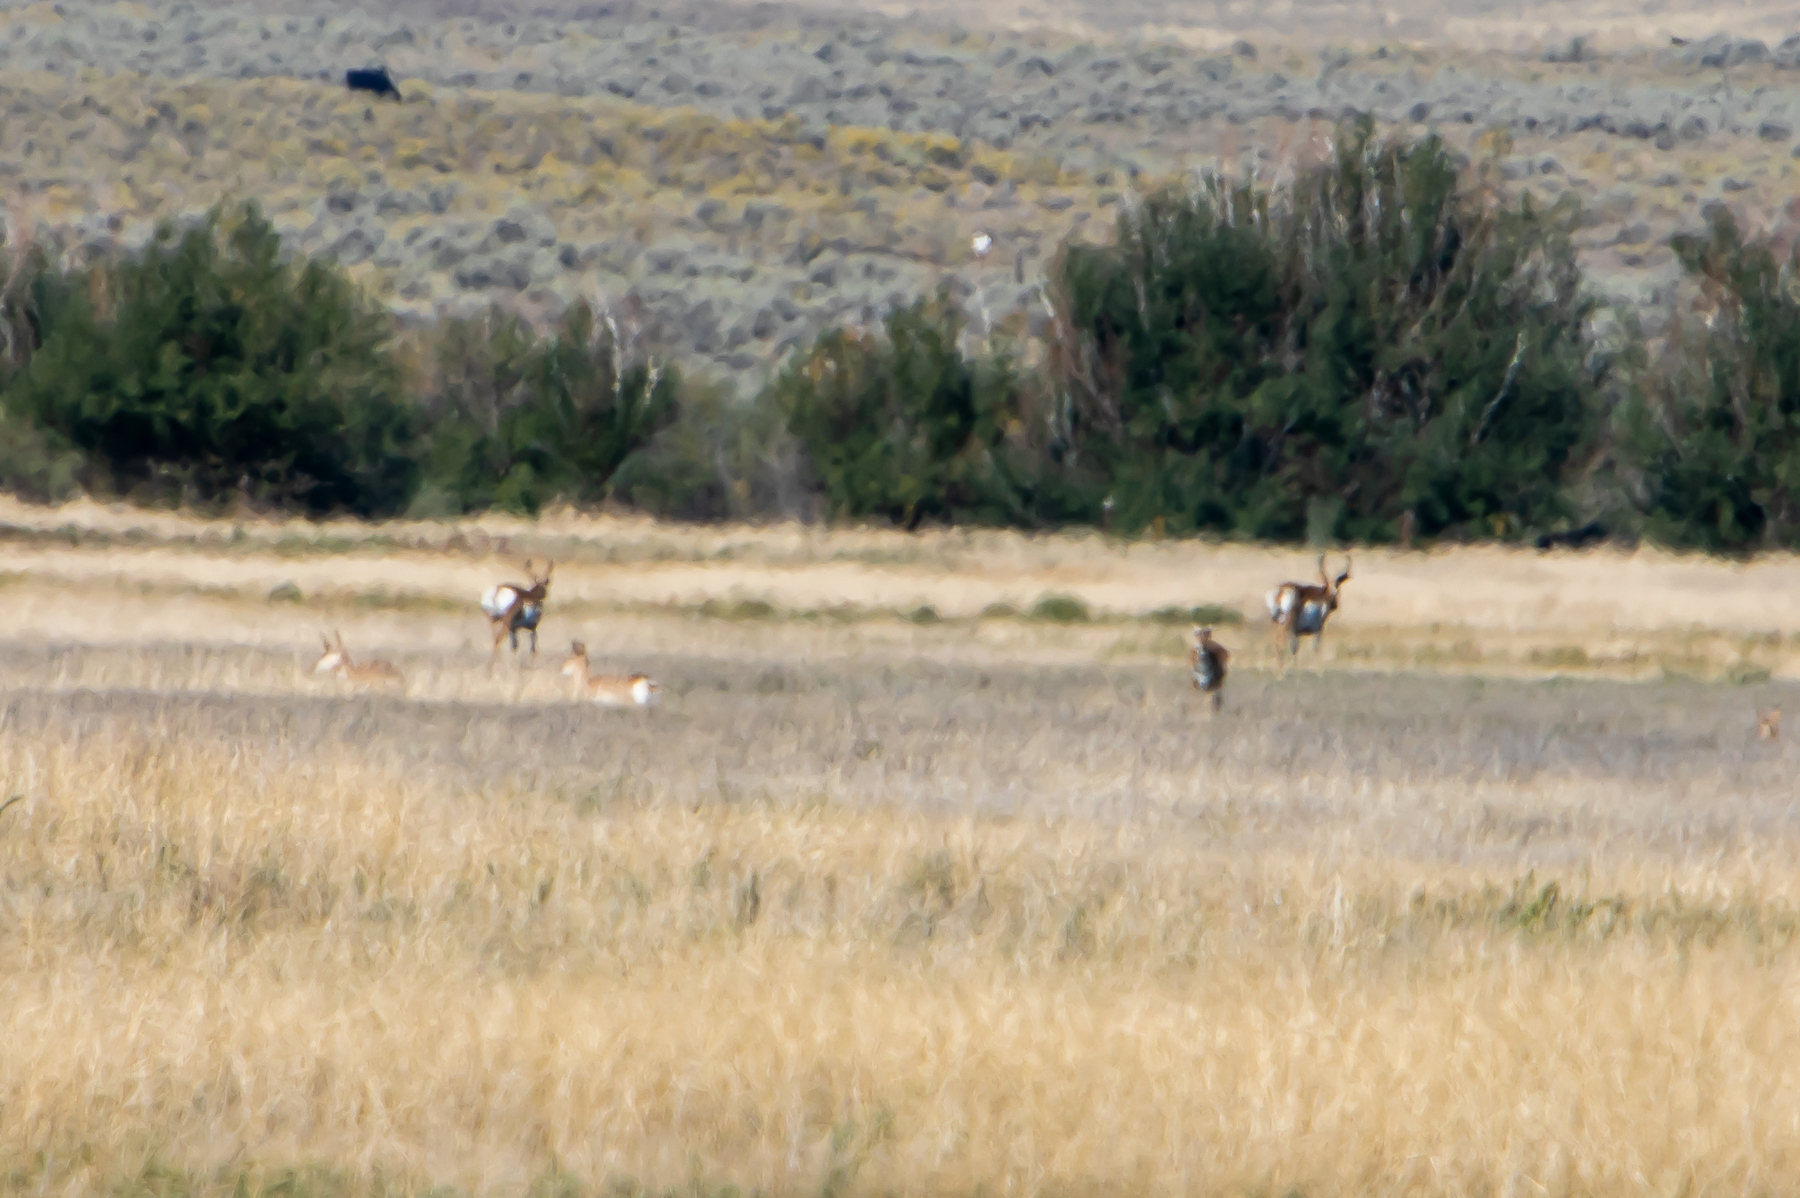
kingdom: Animalia
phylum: Chordata
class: Mammalia
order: Artiodactyla
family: Antilocapridae
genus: Antilocapra
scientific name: Antilocapra americana
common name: Pronghorn
